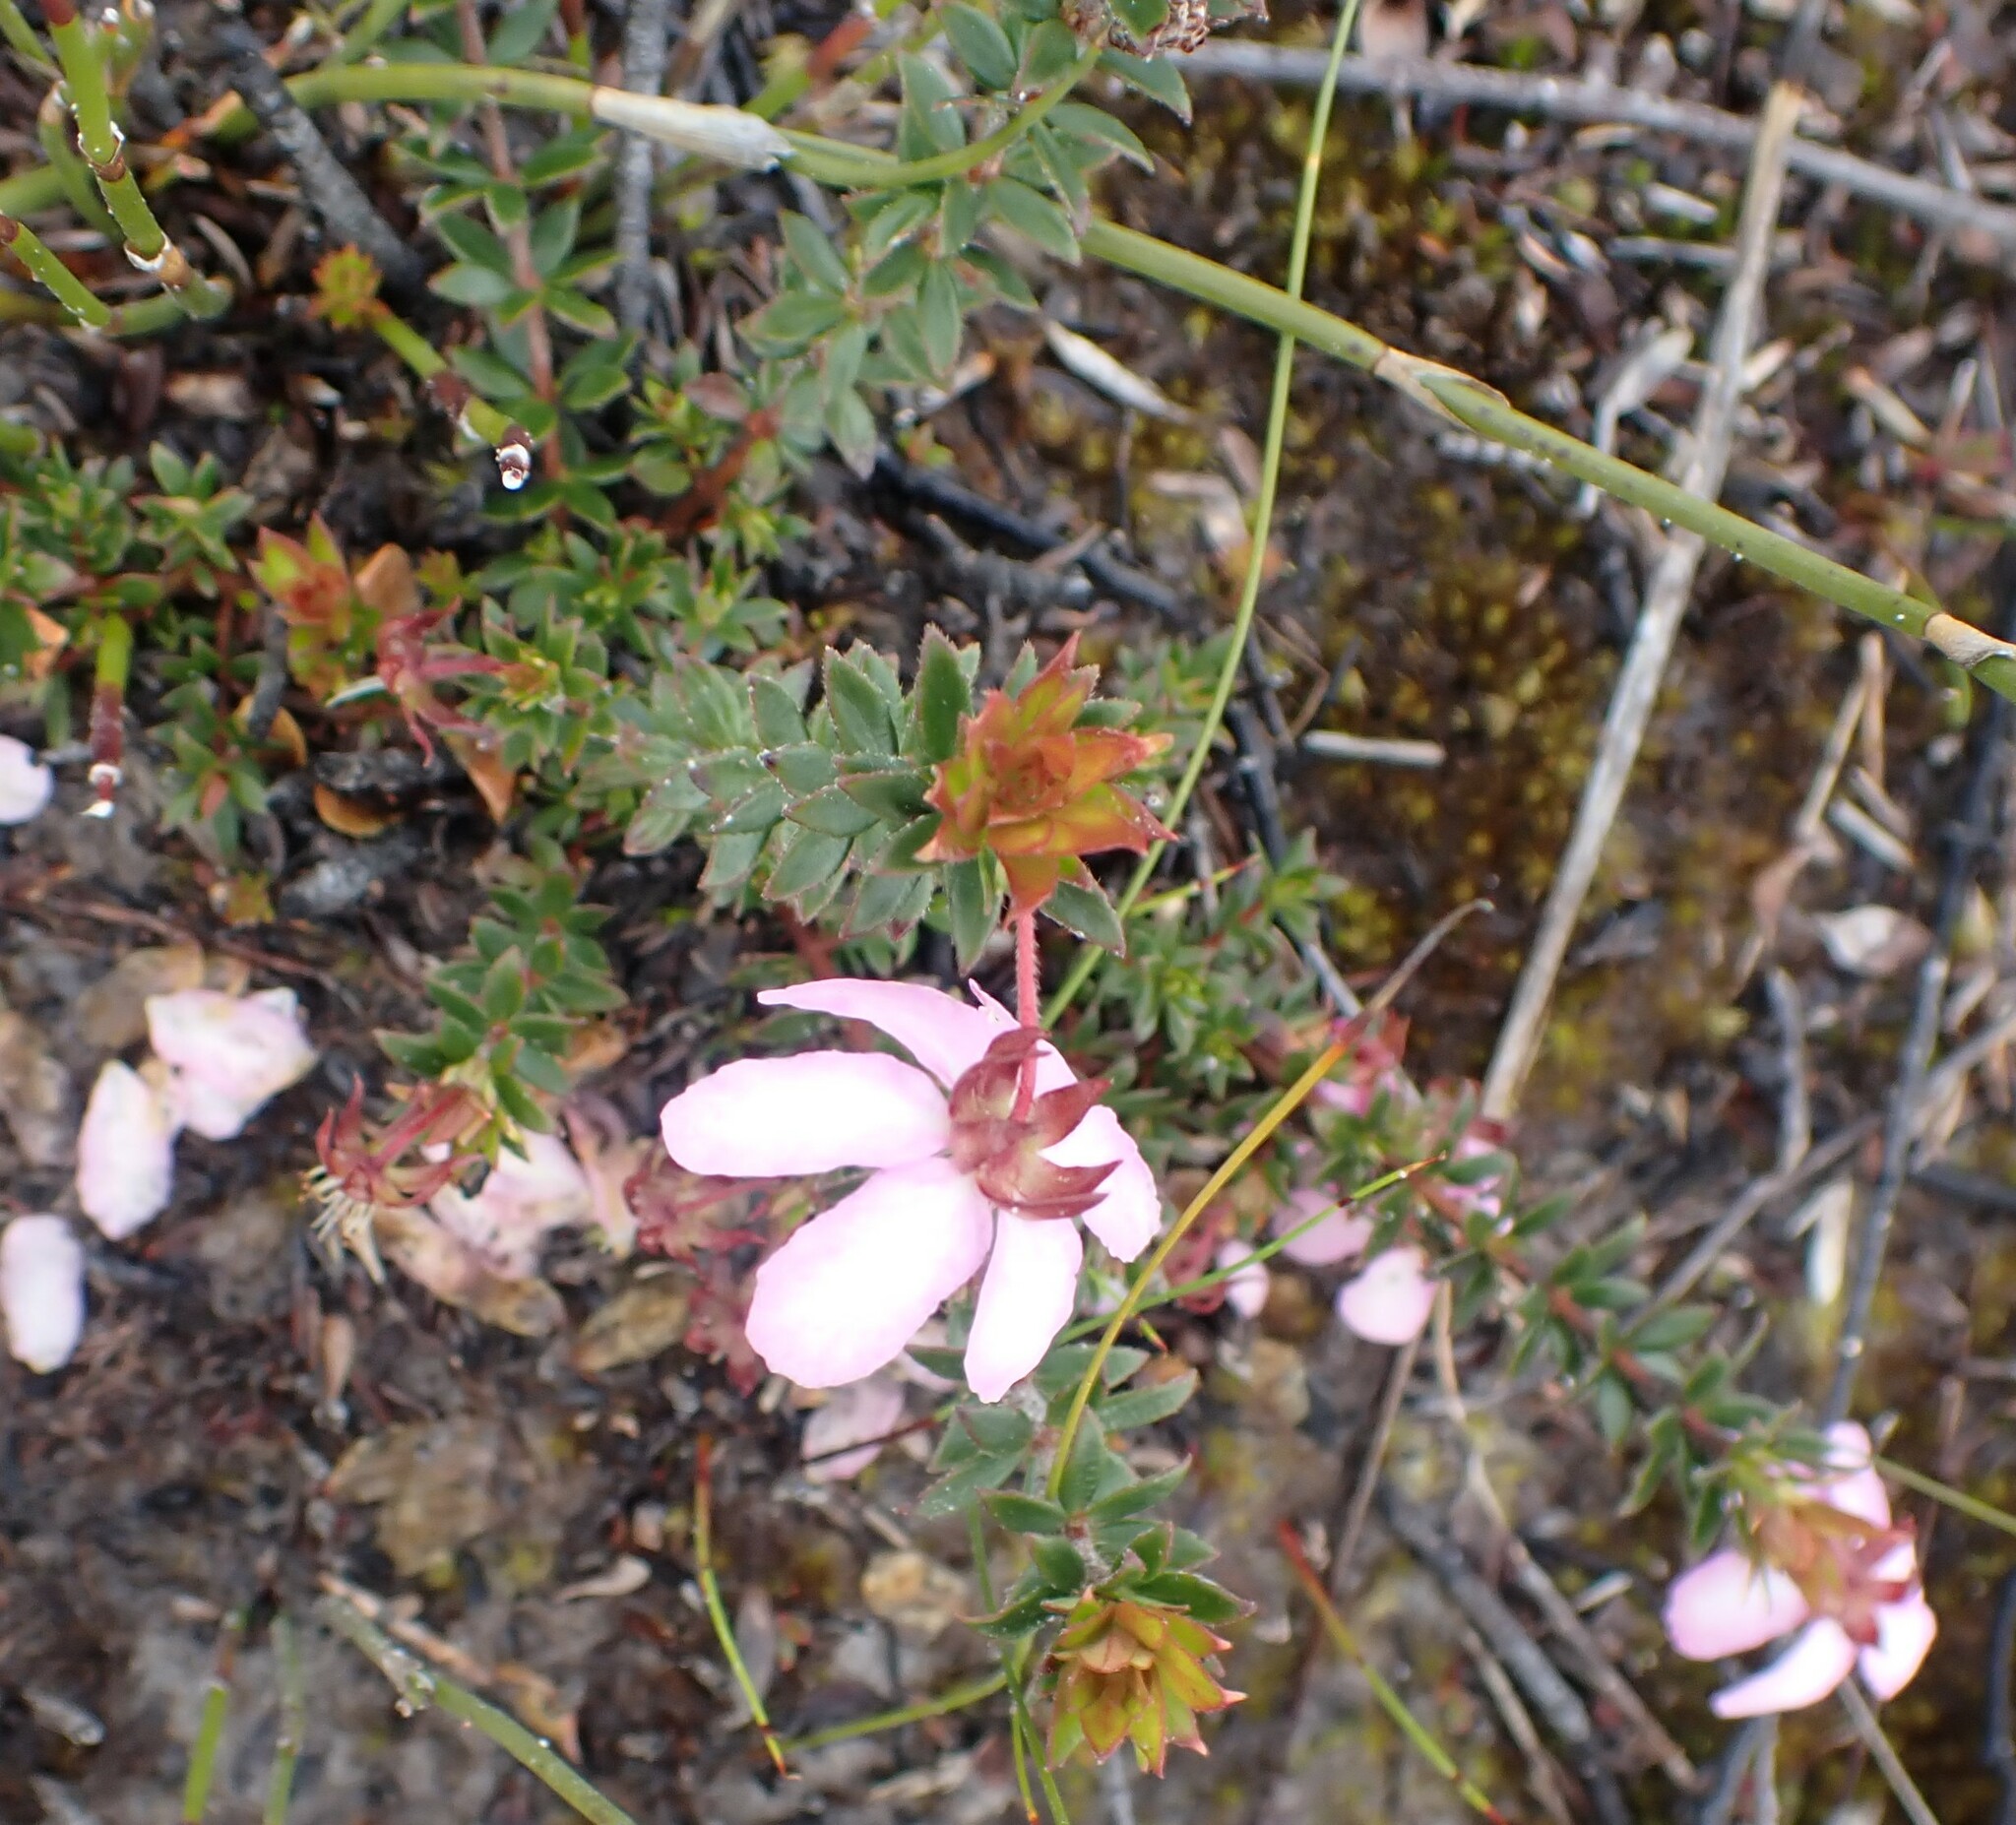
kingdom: Plantae
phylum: Tracheophyta
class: Magnoliopsida
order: Oxalidales
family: Cunoniaceae
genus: Bauera
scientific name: Bauera rubioides
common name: River-rose
